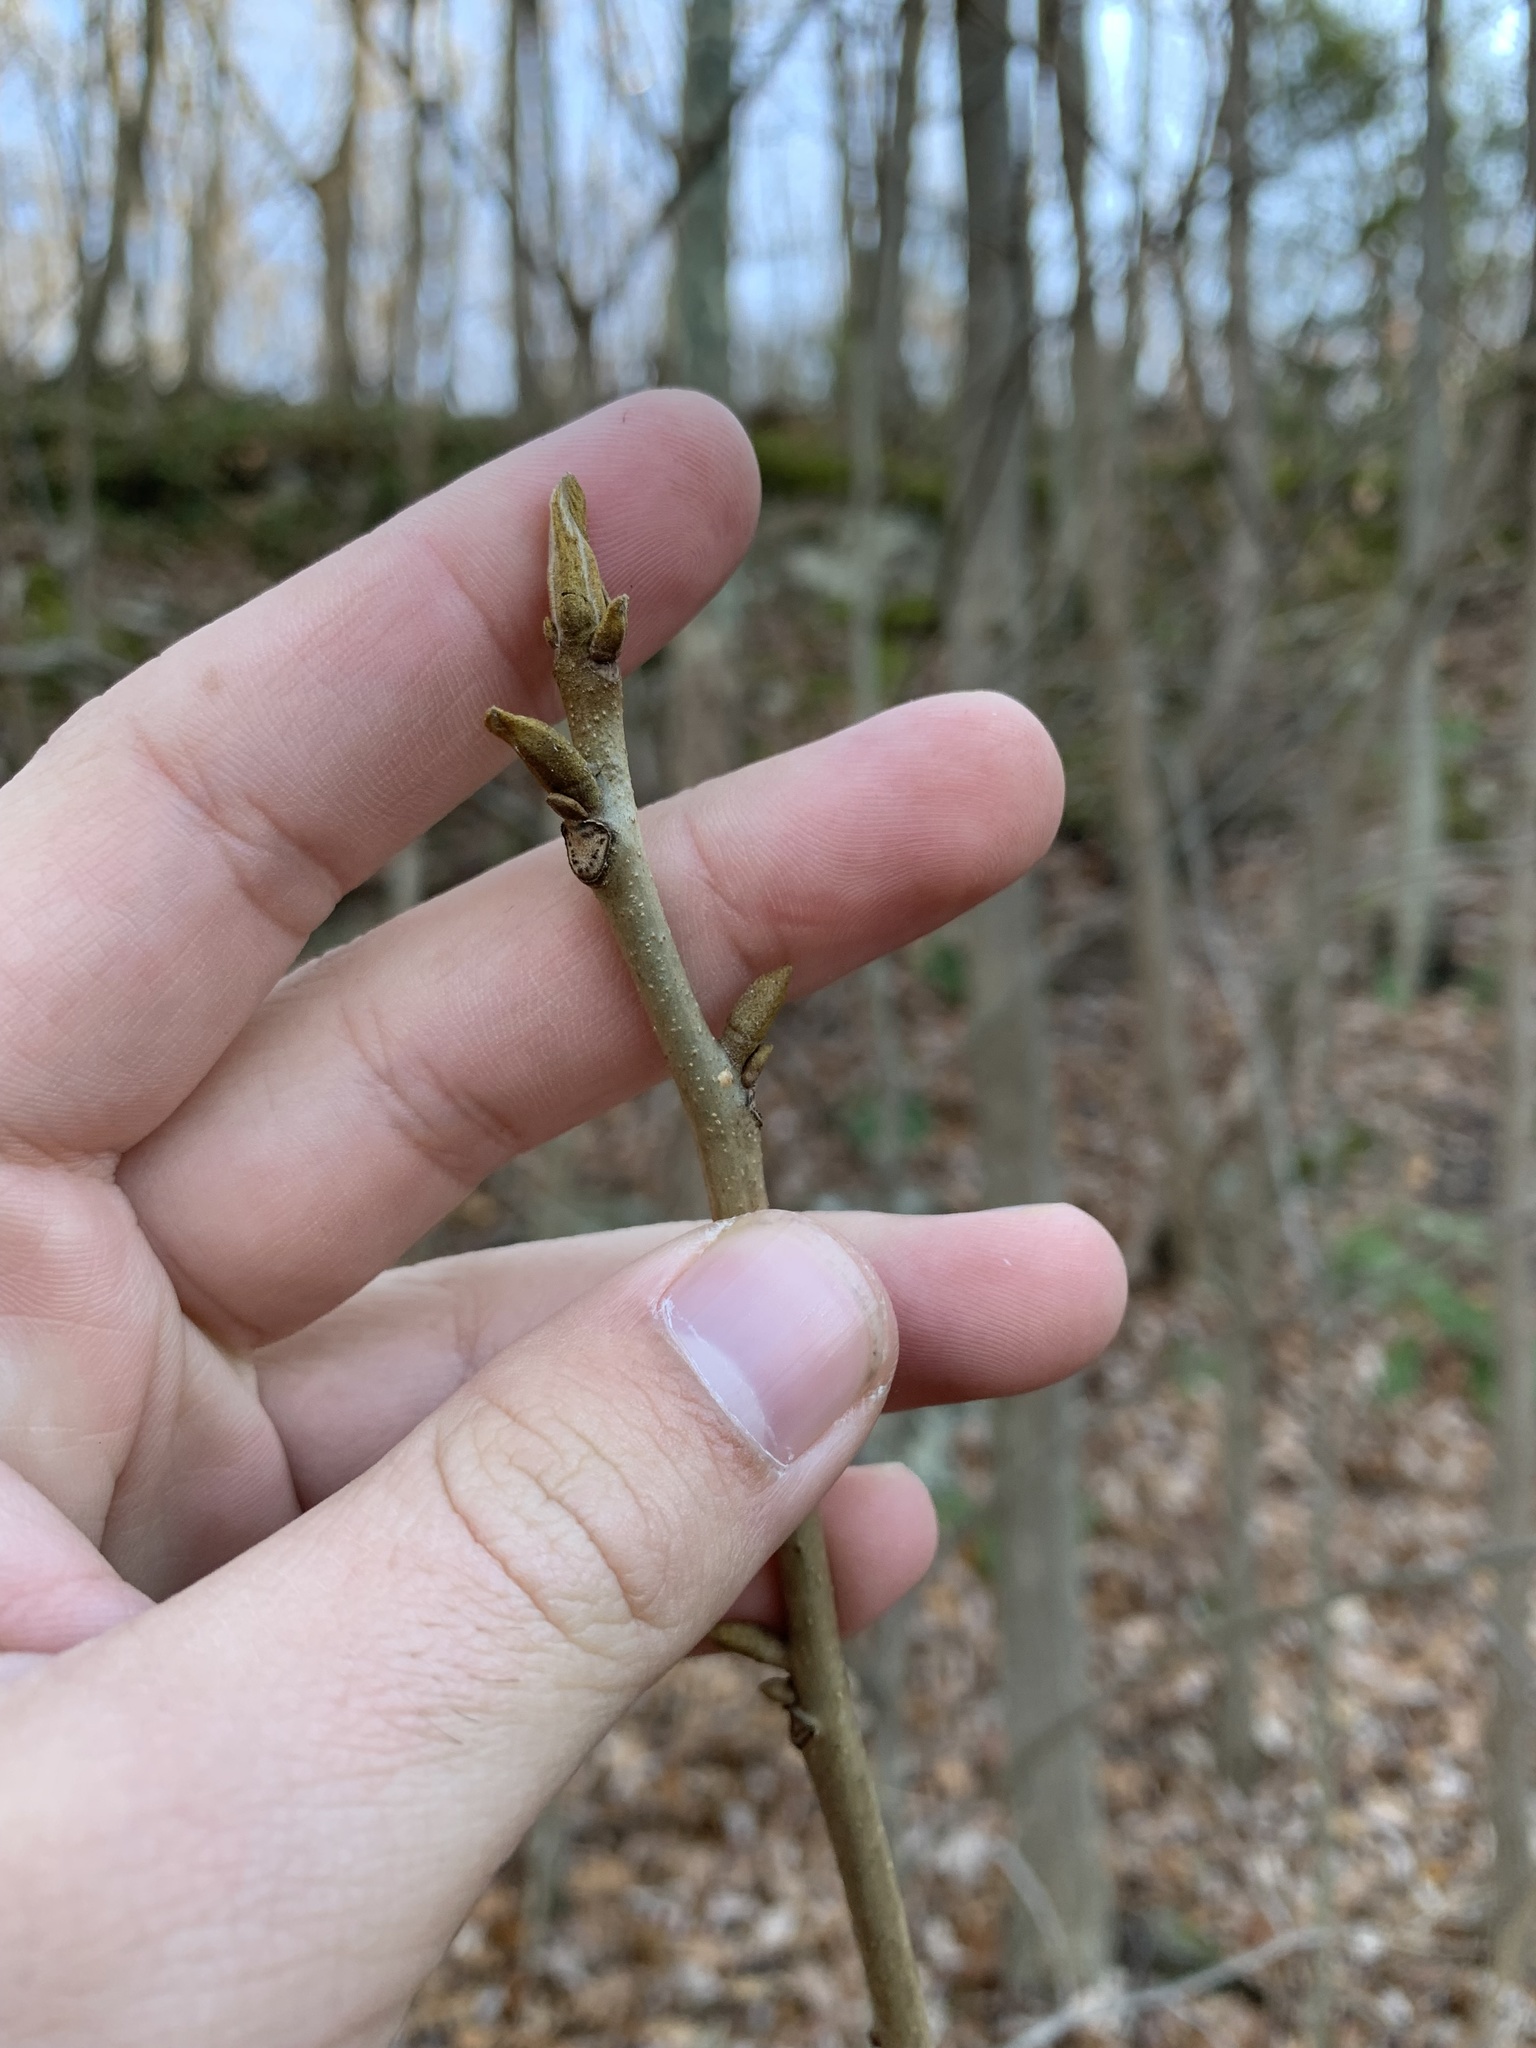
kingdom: Plantae
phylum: Tracheophyta
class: Magnoliopsida
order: Fagales
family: Juglandaceae
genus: Carya
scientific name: Carya cordiformis
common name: Bitternut hickory
